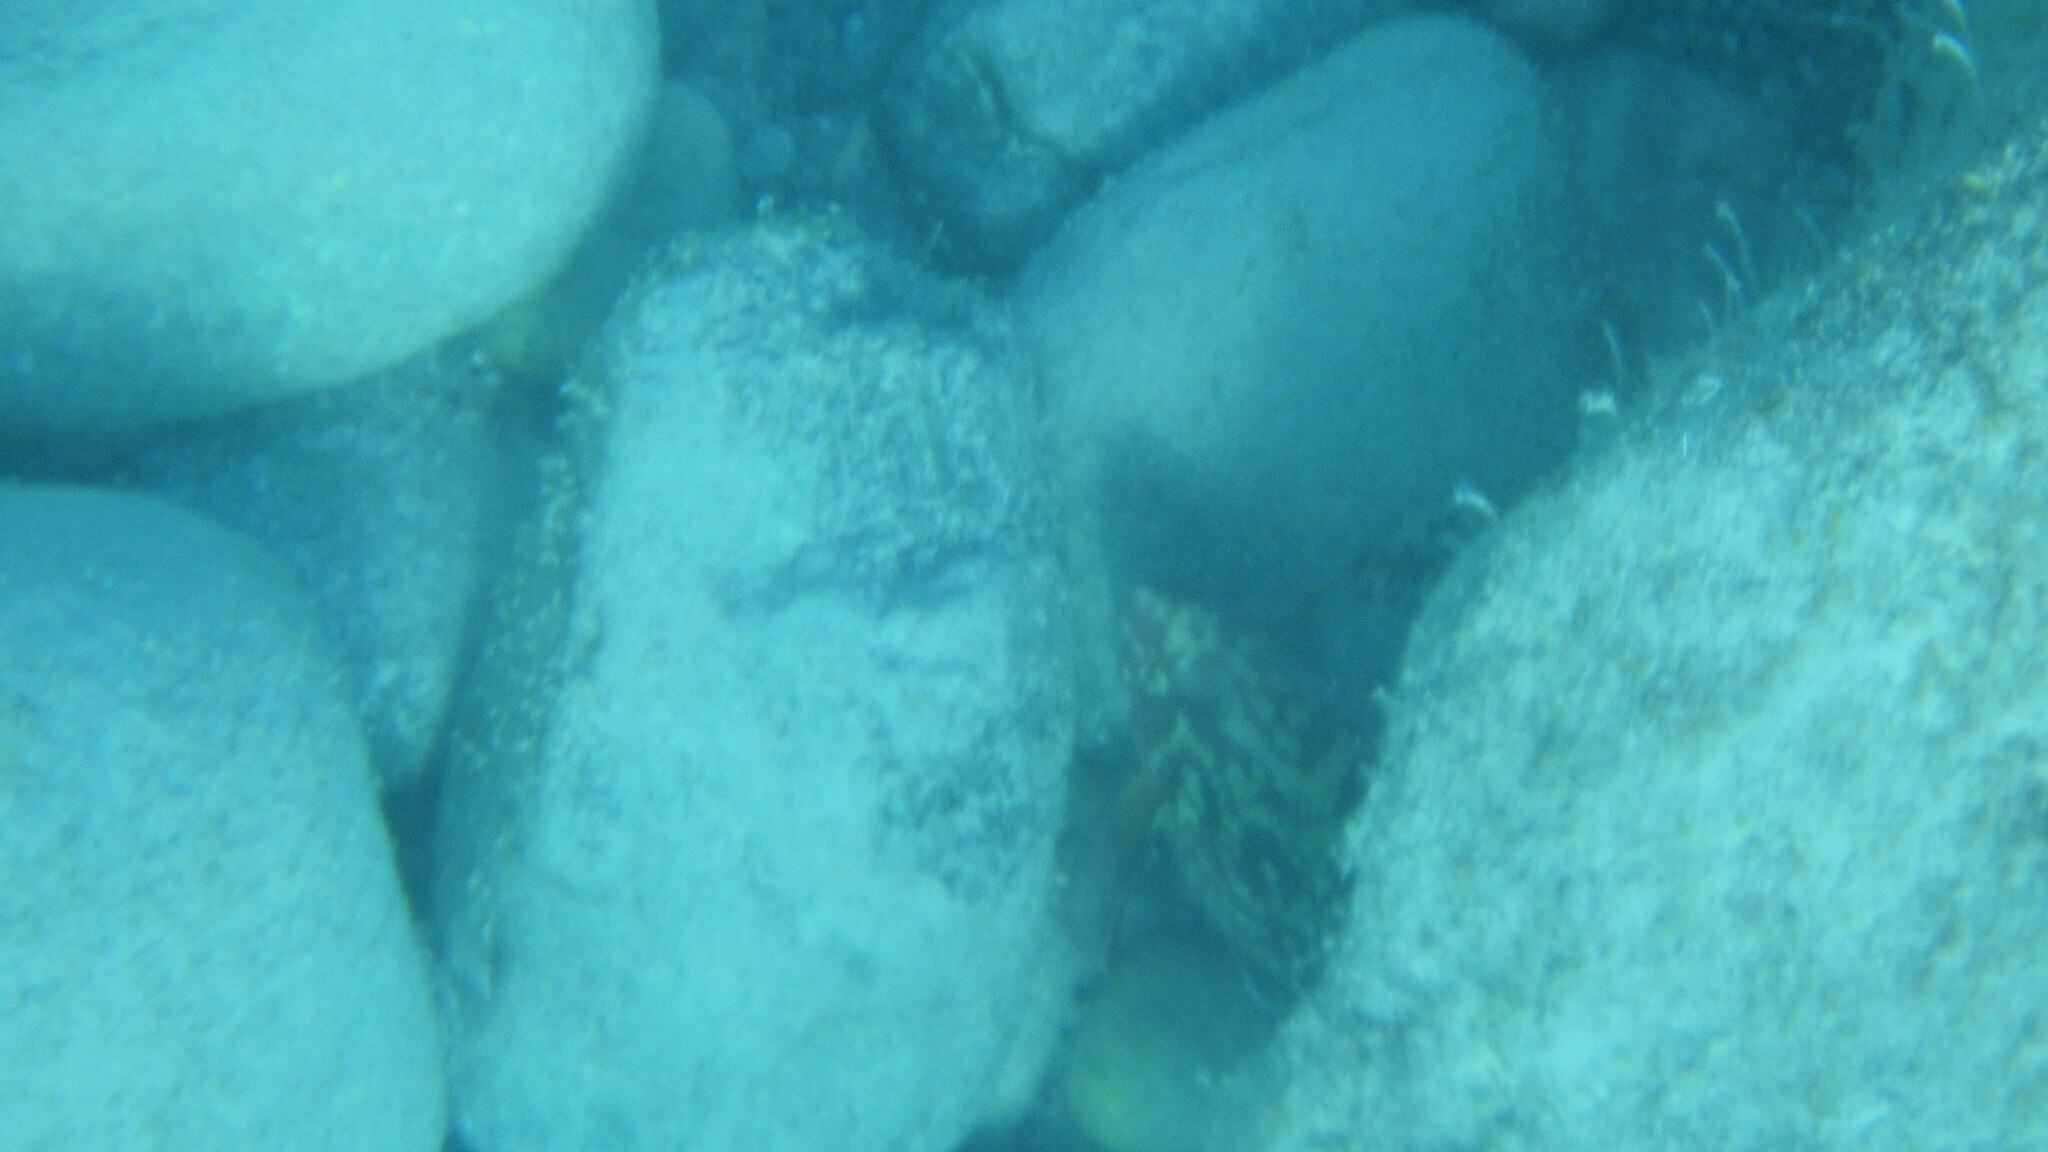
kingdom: Animalia
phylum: Chordata
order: Perciformes
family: Serranidae
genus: Epinephelus
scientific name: Epinephelus marginatus
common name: Dusky grouper
